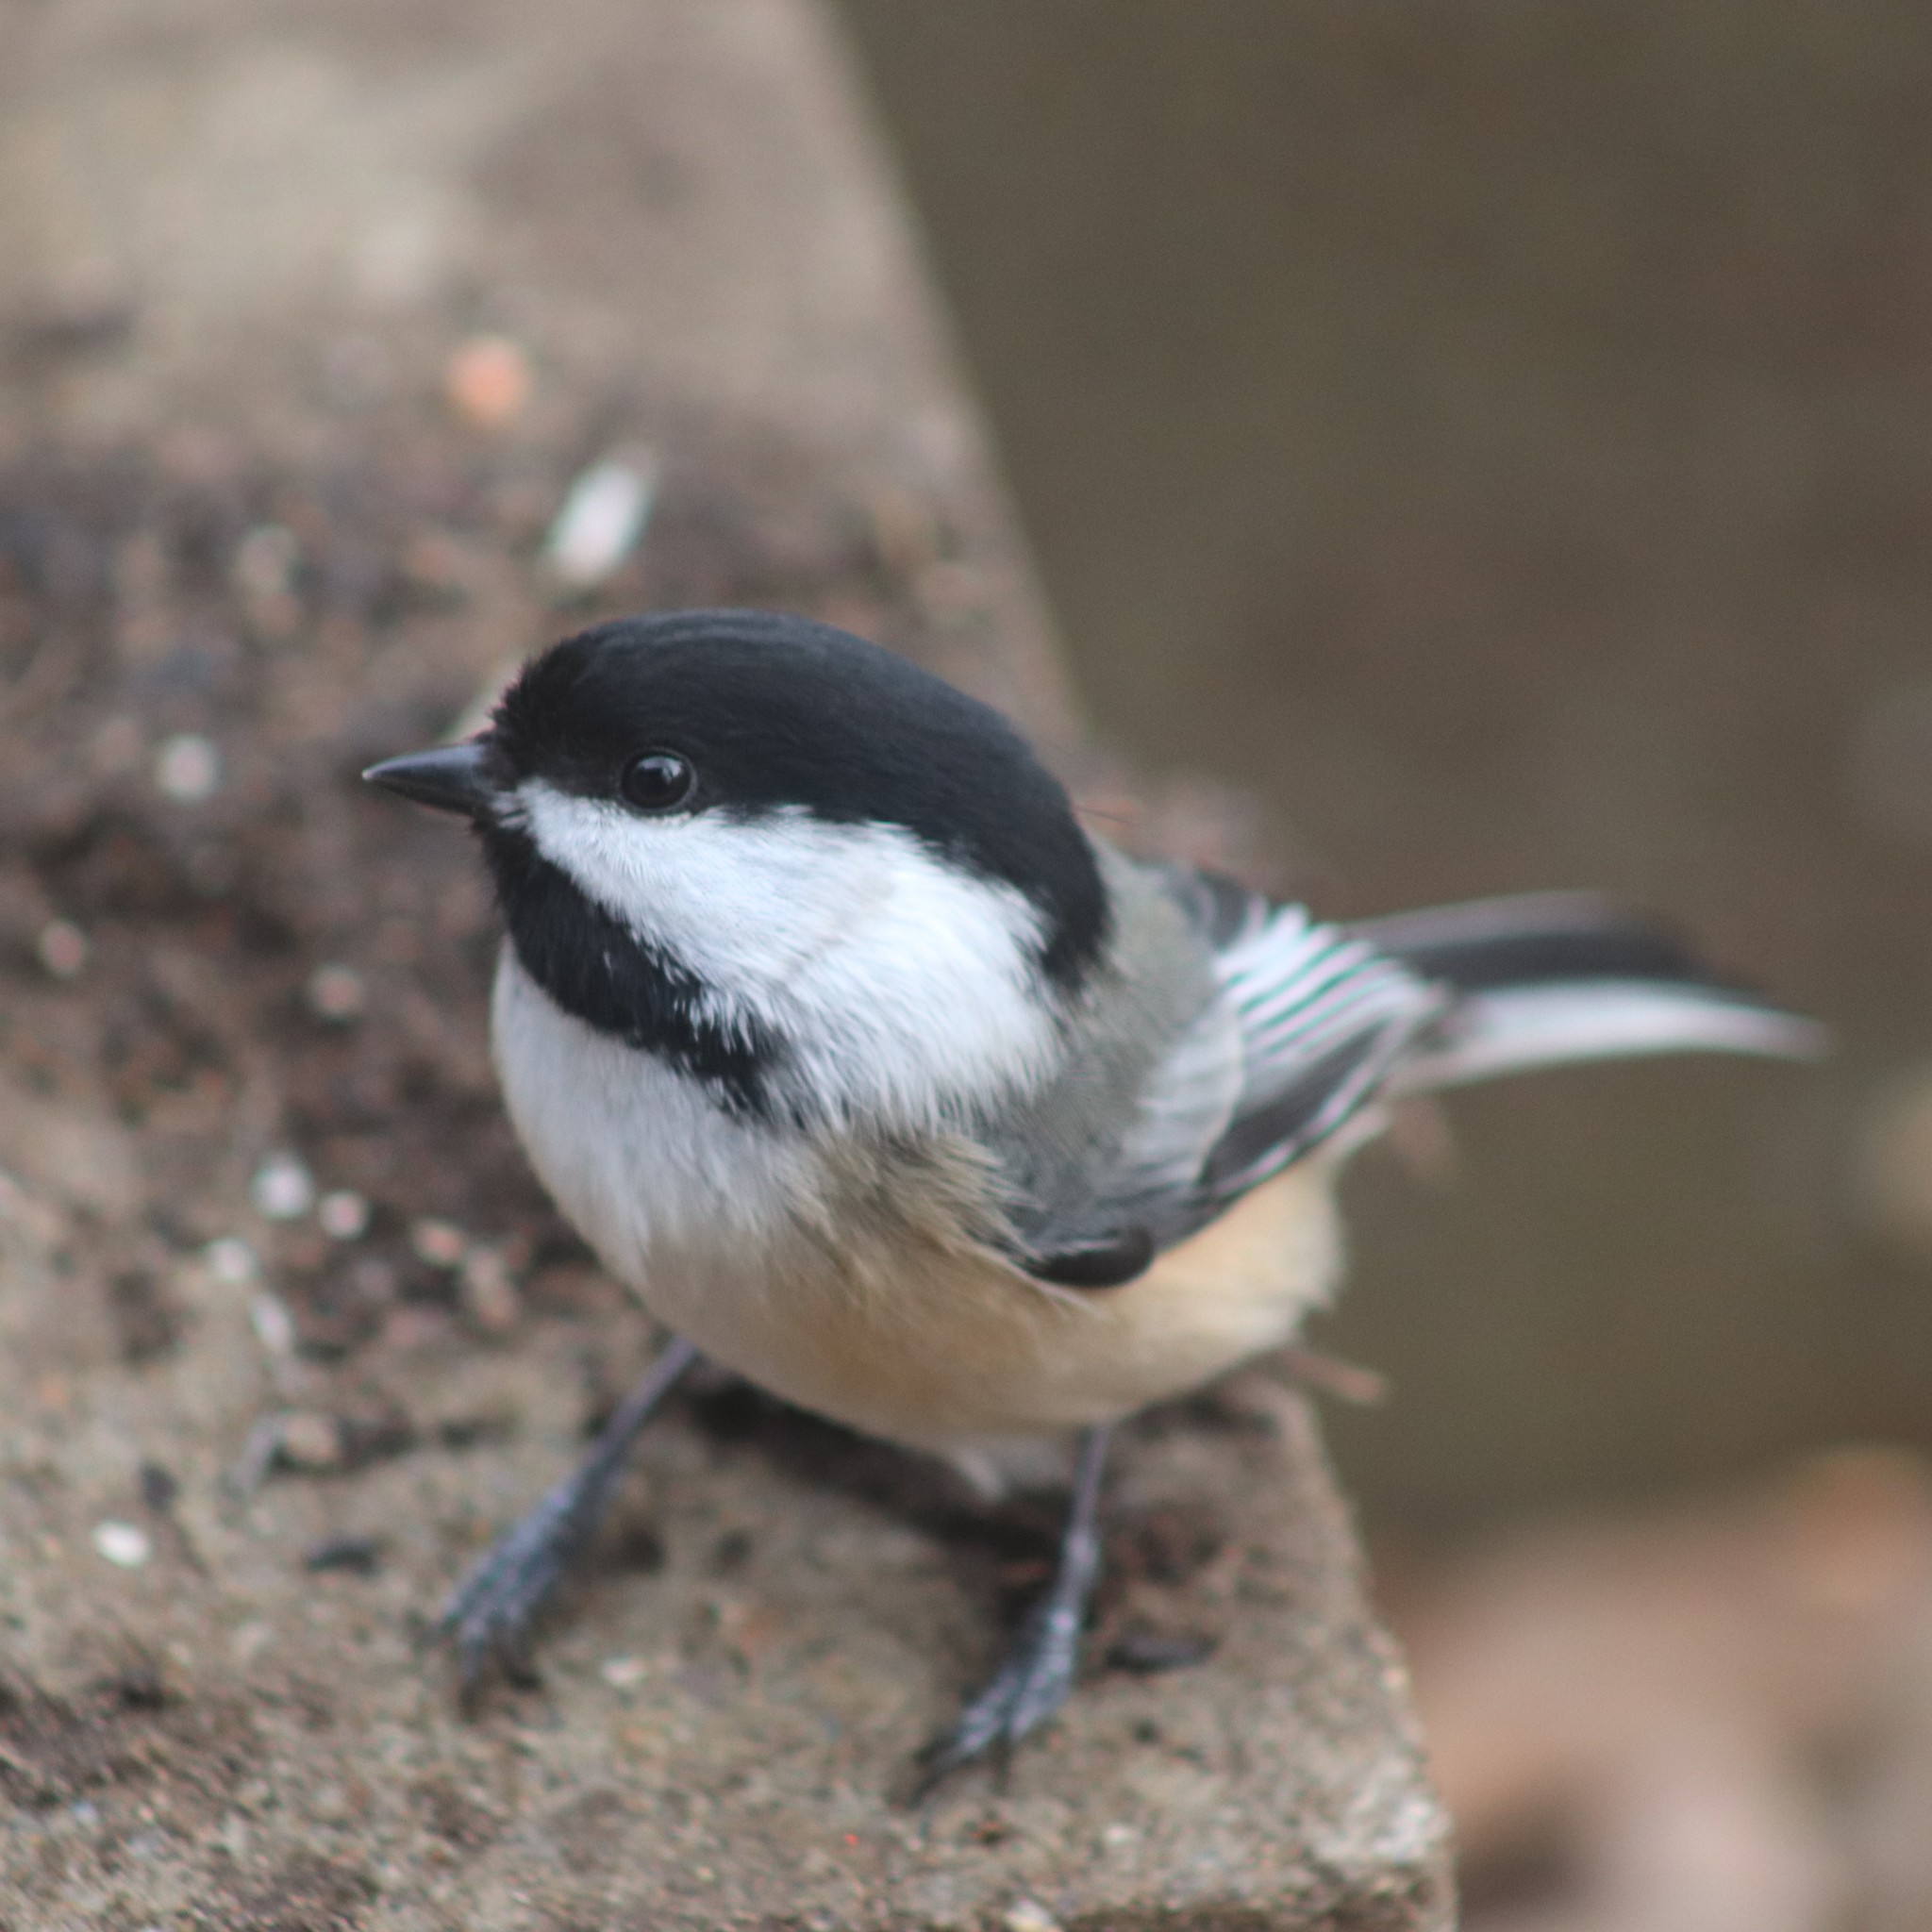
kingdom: Animalia
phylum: Chordata
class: Aves
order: Passeriformes
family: Paridae
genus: Poecile
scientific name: Poecile atricapillus
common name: Black-capped chickadee
